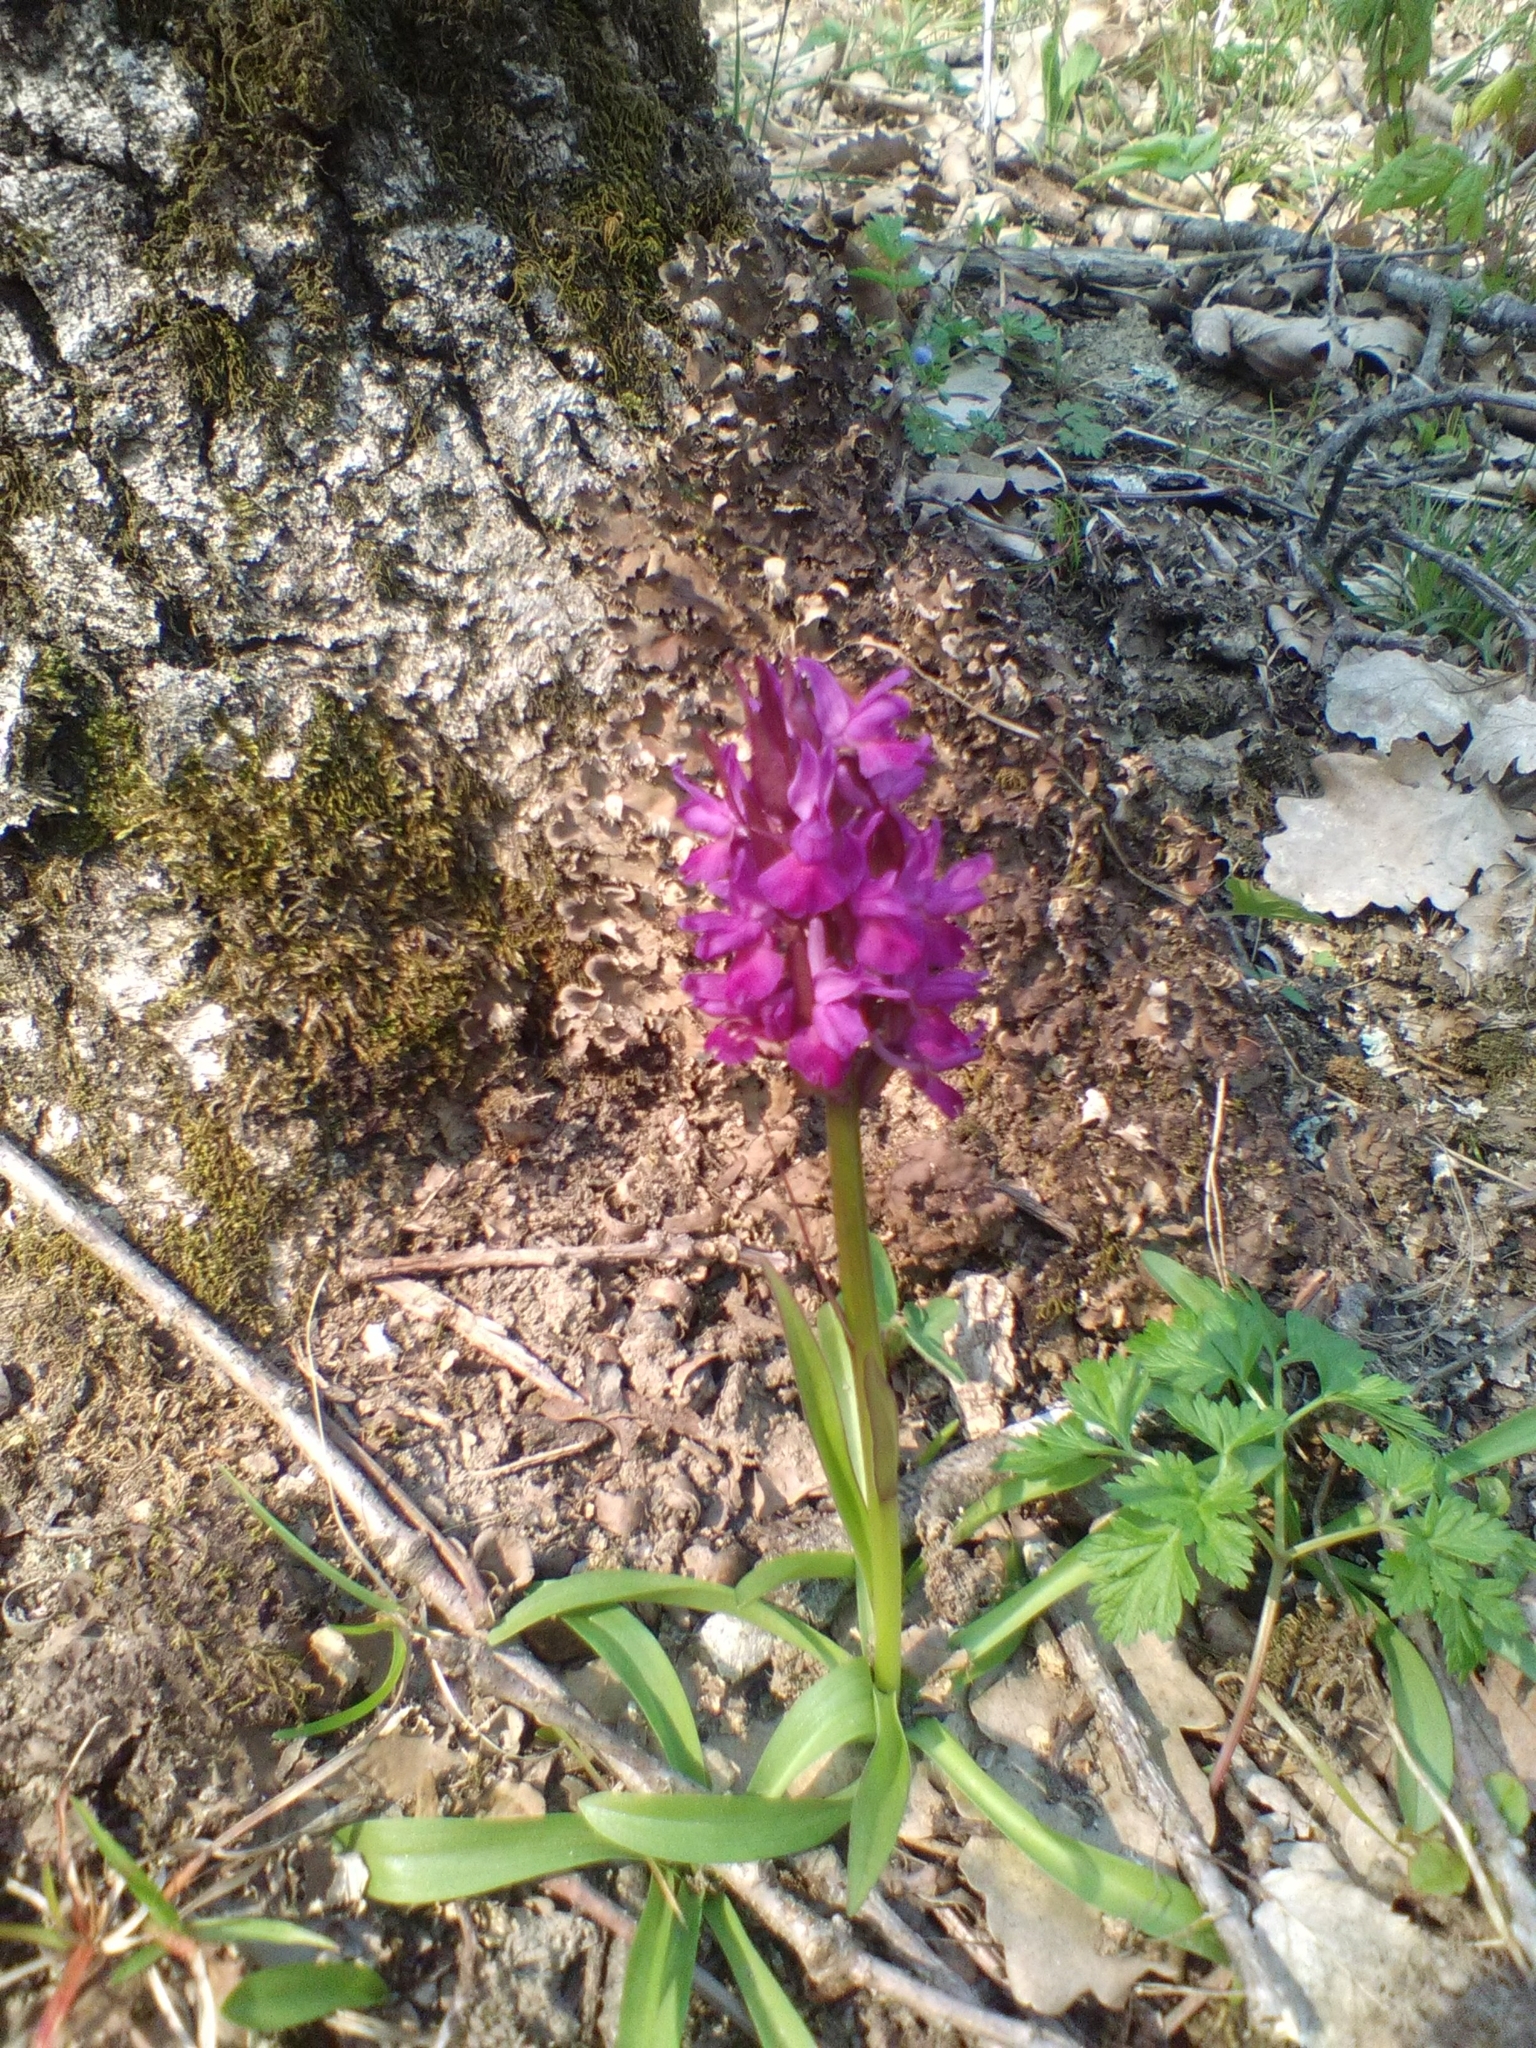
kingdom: Plantae
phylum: Tracheophyta
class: Liliopsida
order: Asparagales
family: Orchidaceae
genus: Dactylorhiza
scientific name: Dactylorhiza romana
